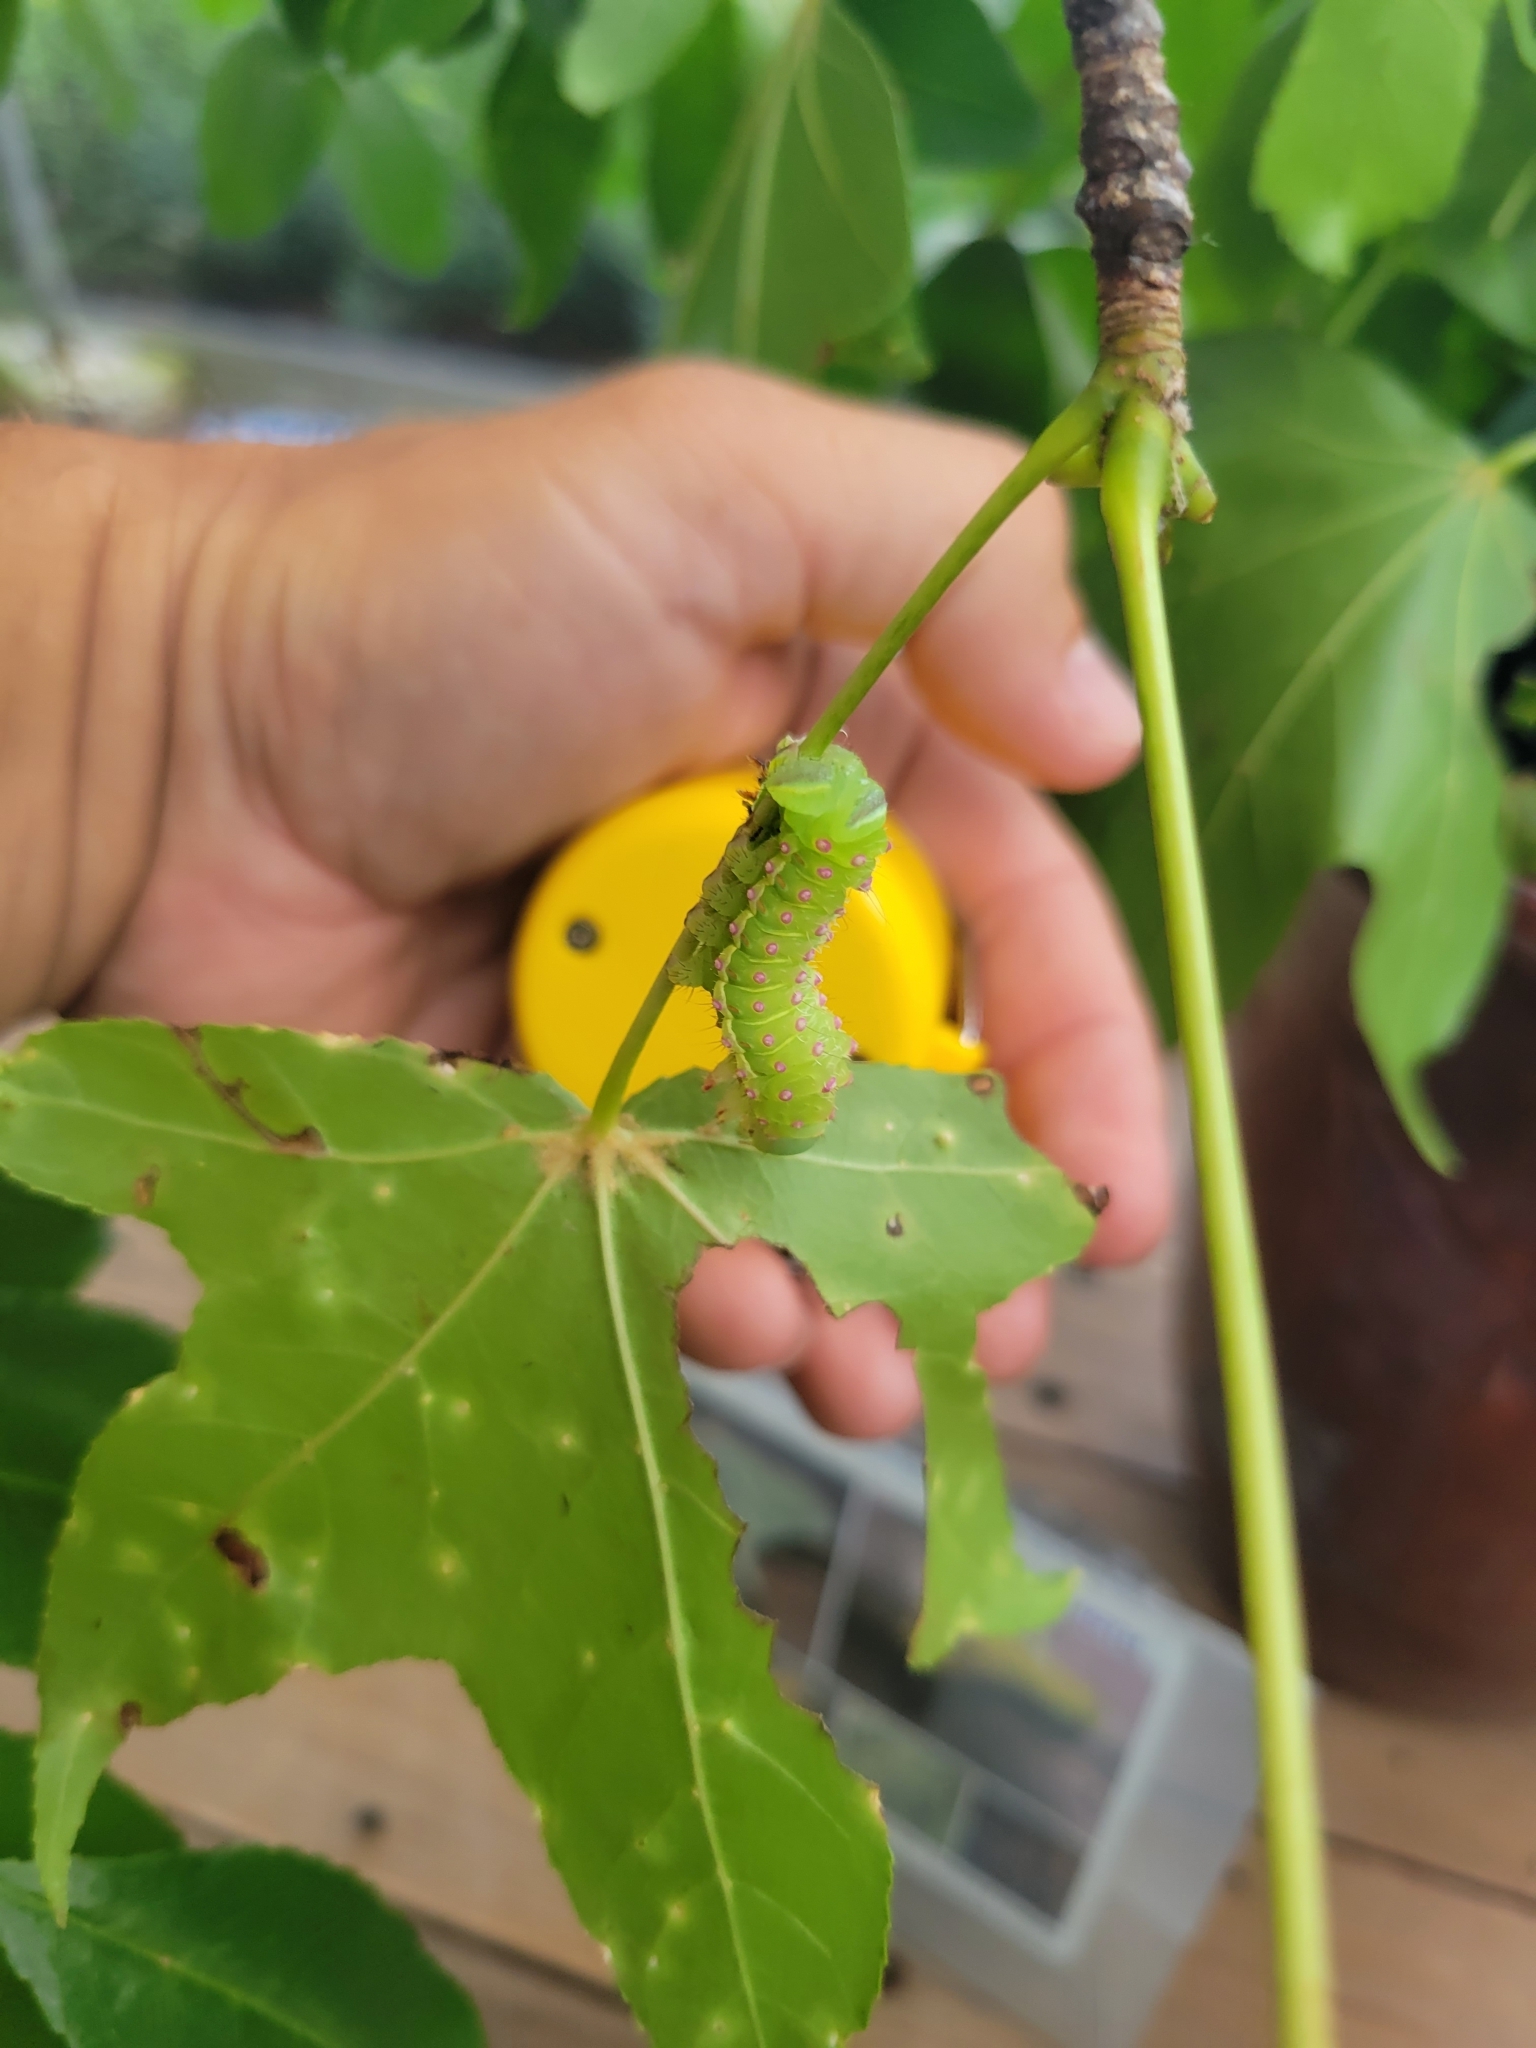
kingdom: Animalia
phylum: Arthropoda
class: Insecta
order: Lepidoptera
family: Saturniidae
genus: Actias
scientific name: Actias luna
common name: Luna moth
